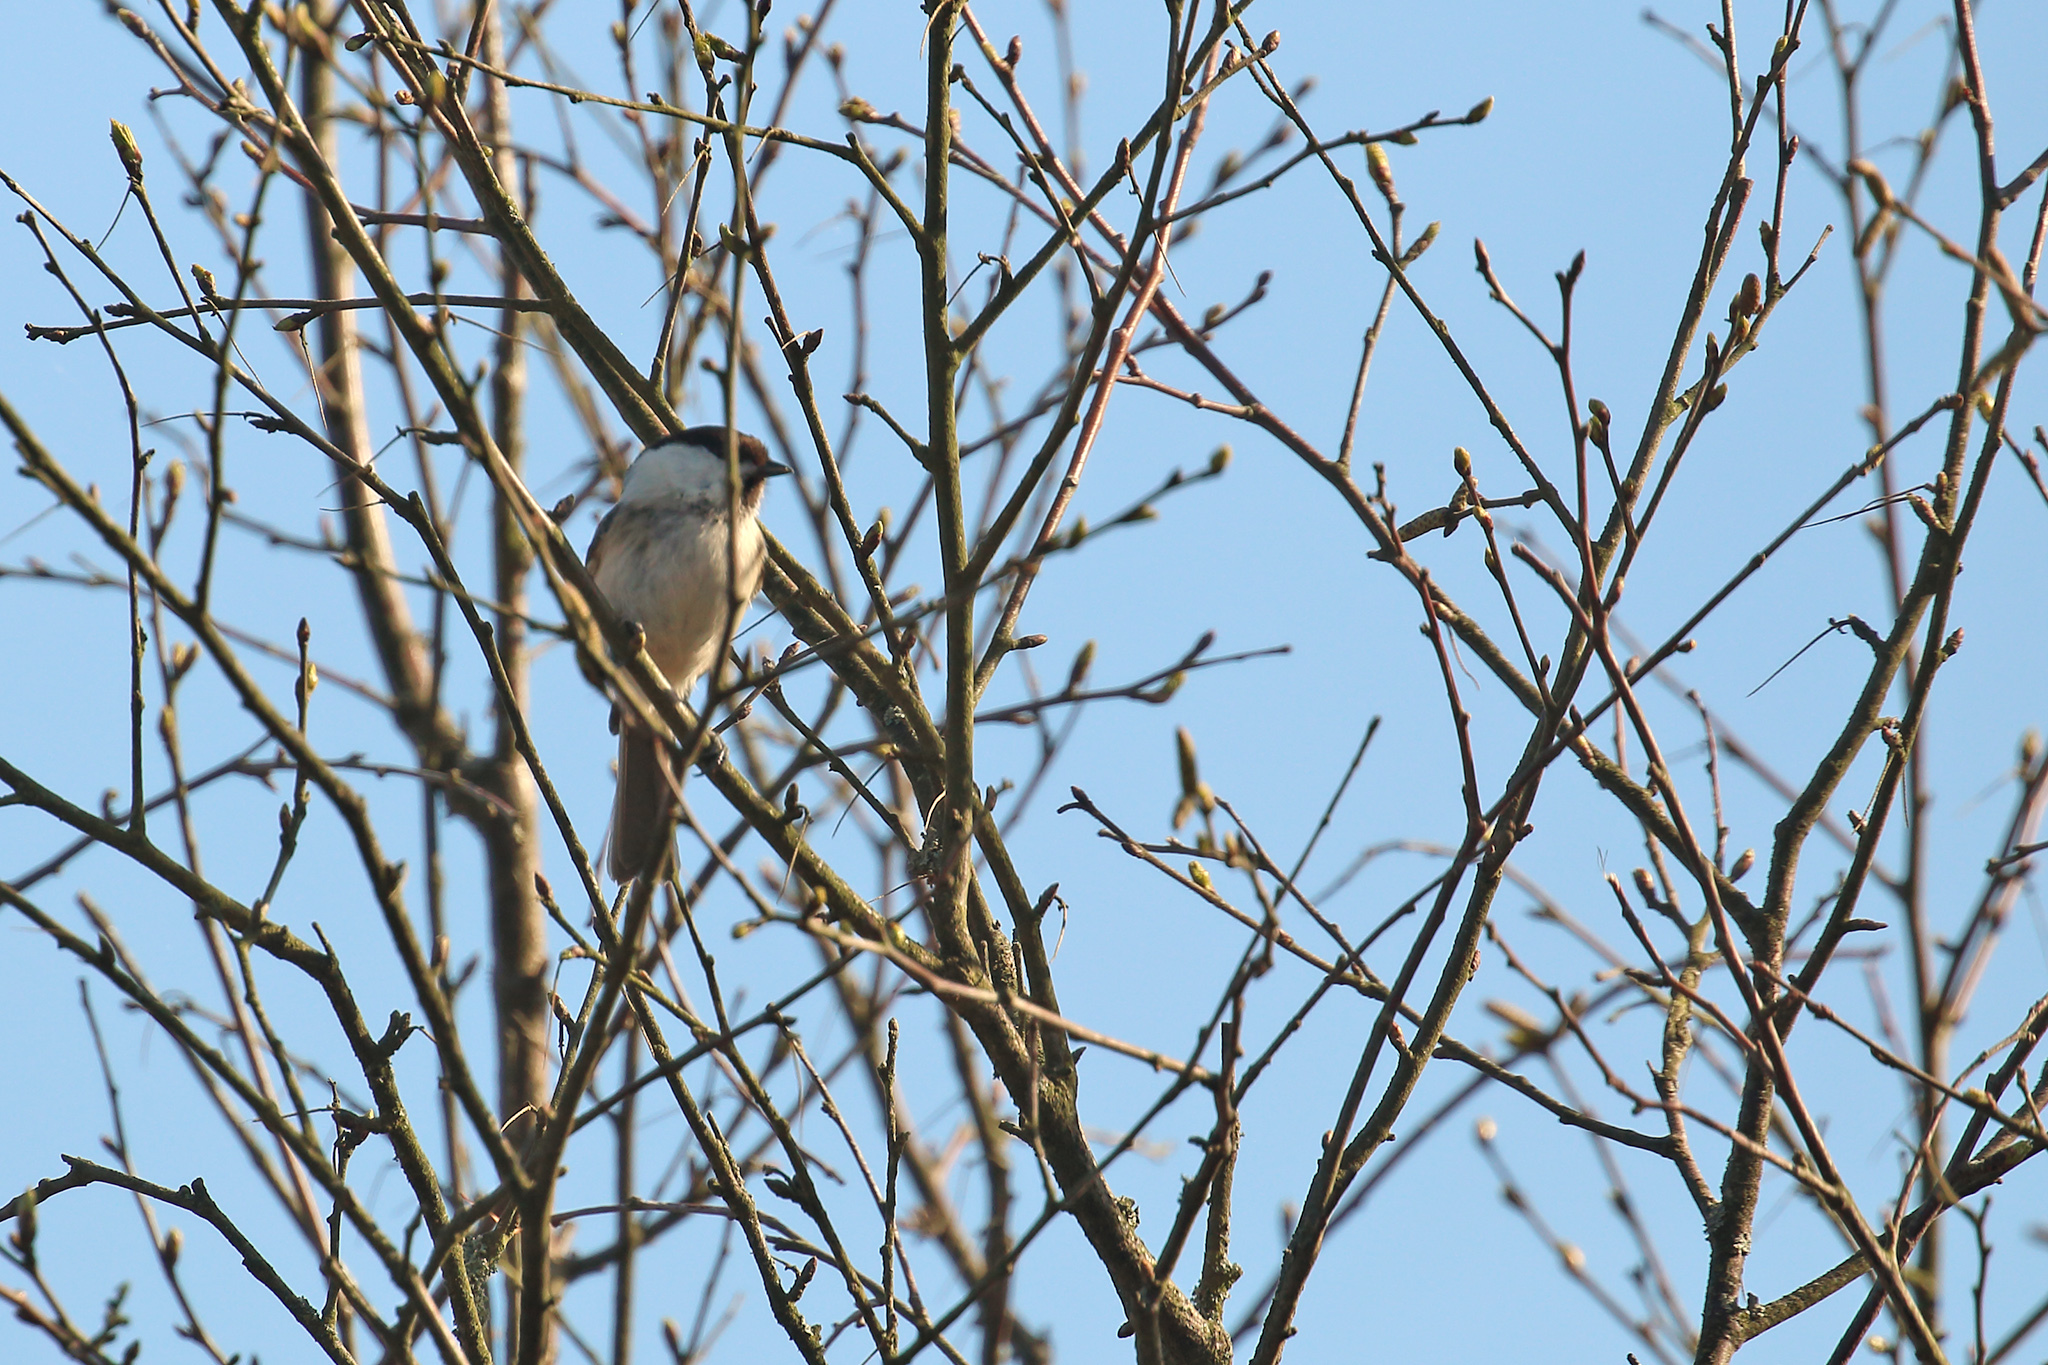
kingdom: Animalia
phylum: Chordata
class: Aves
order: Passeriformes
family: Paridae
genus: Poecile
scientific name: Poecile montanus
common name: Willow tit
